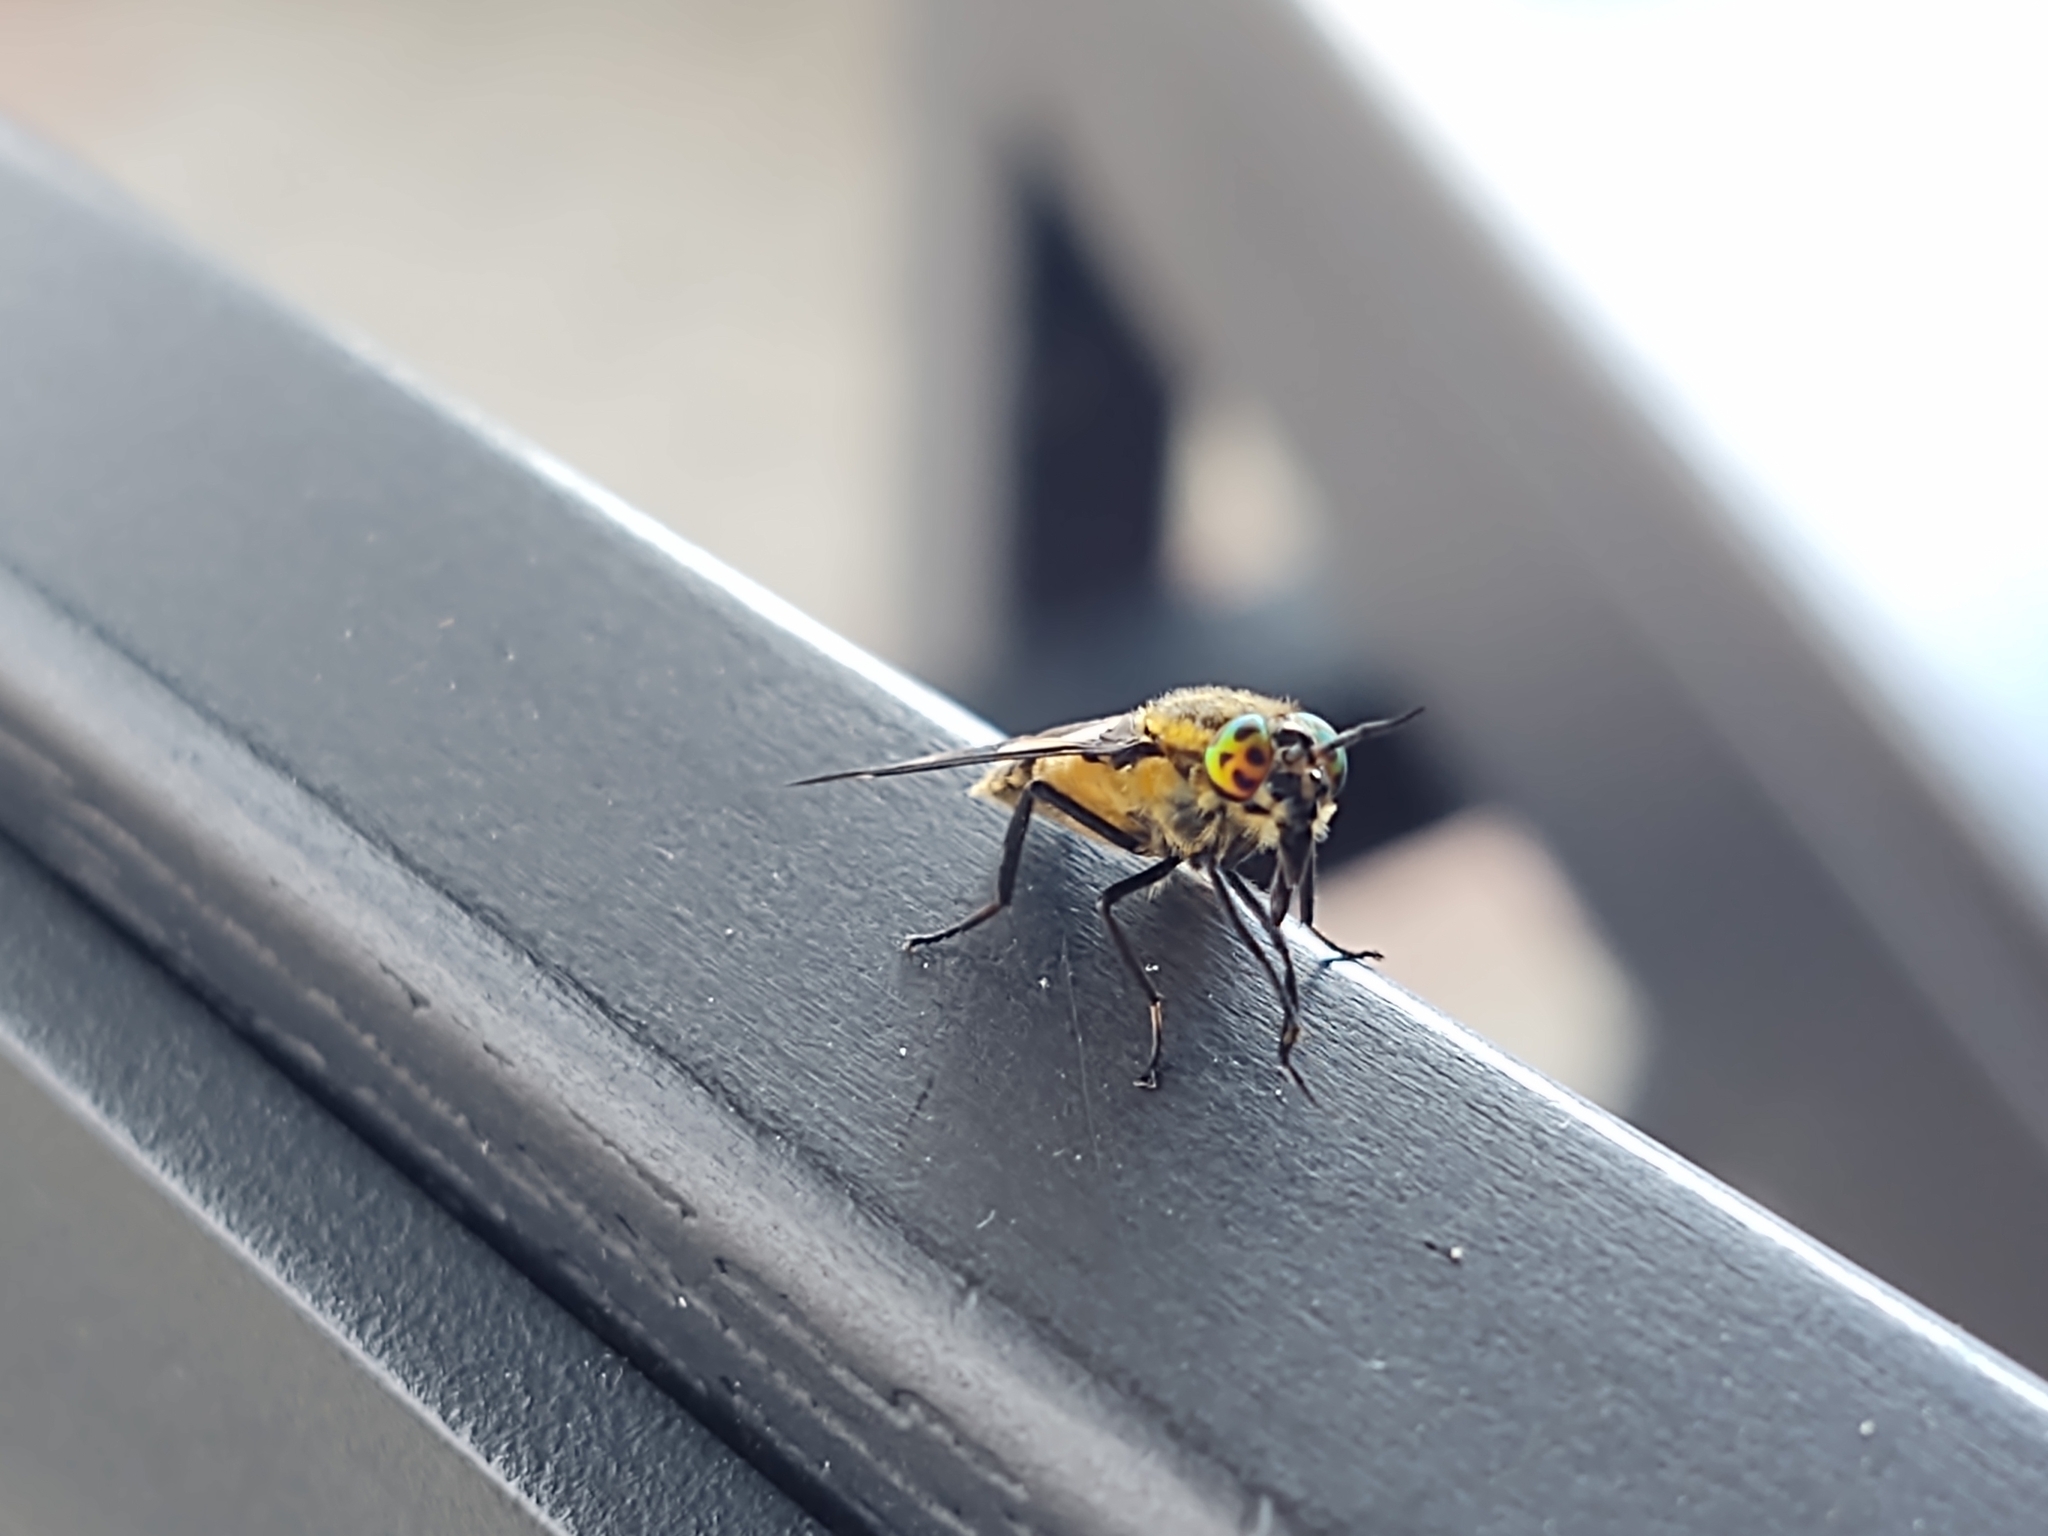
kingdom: Animalia
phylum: Arthropoda
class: Insecta
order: Diptera
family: Tabanidae
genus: Chrysops
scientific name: Chrysops caecutiens
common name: Splayed deerfly
